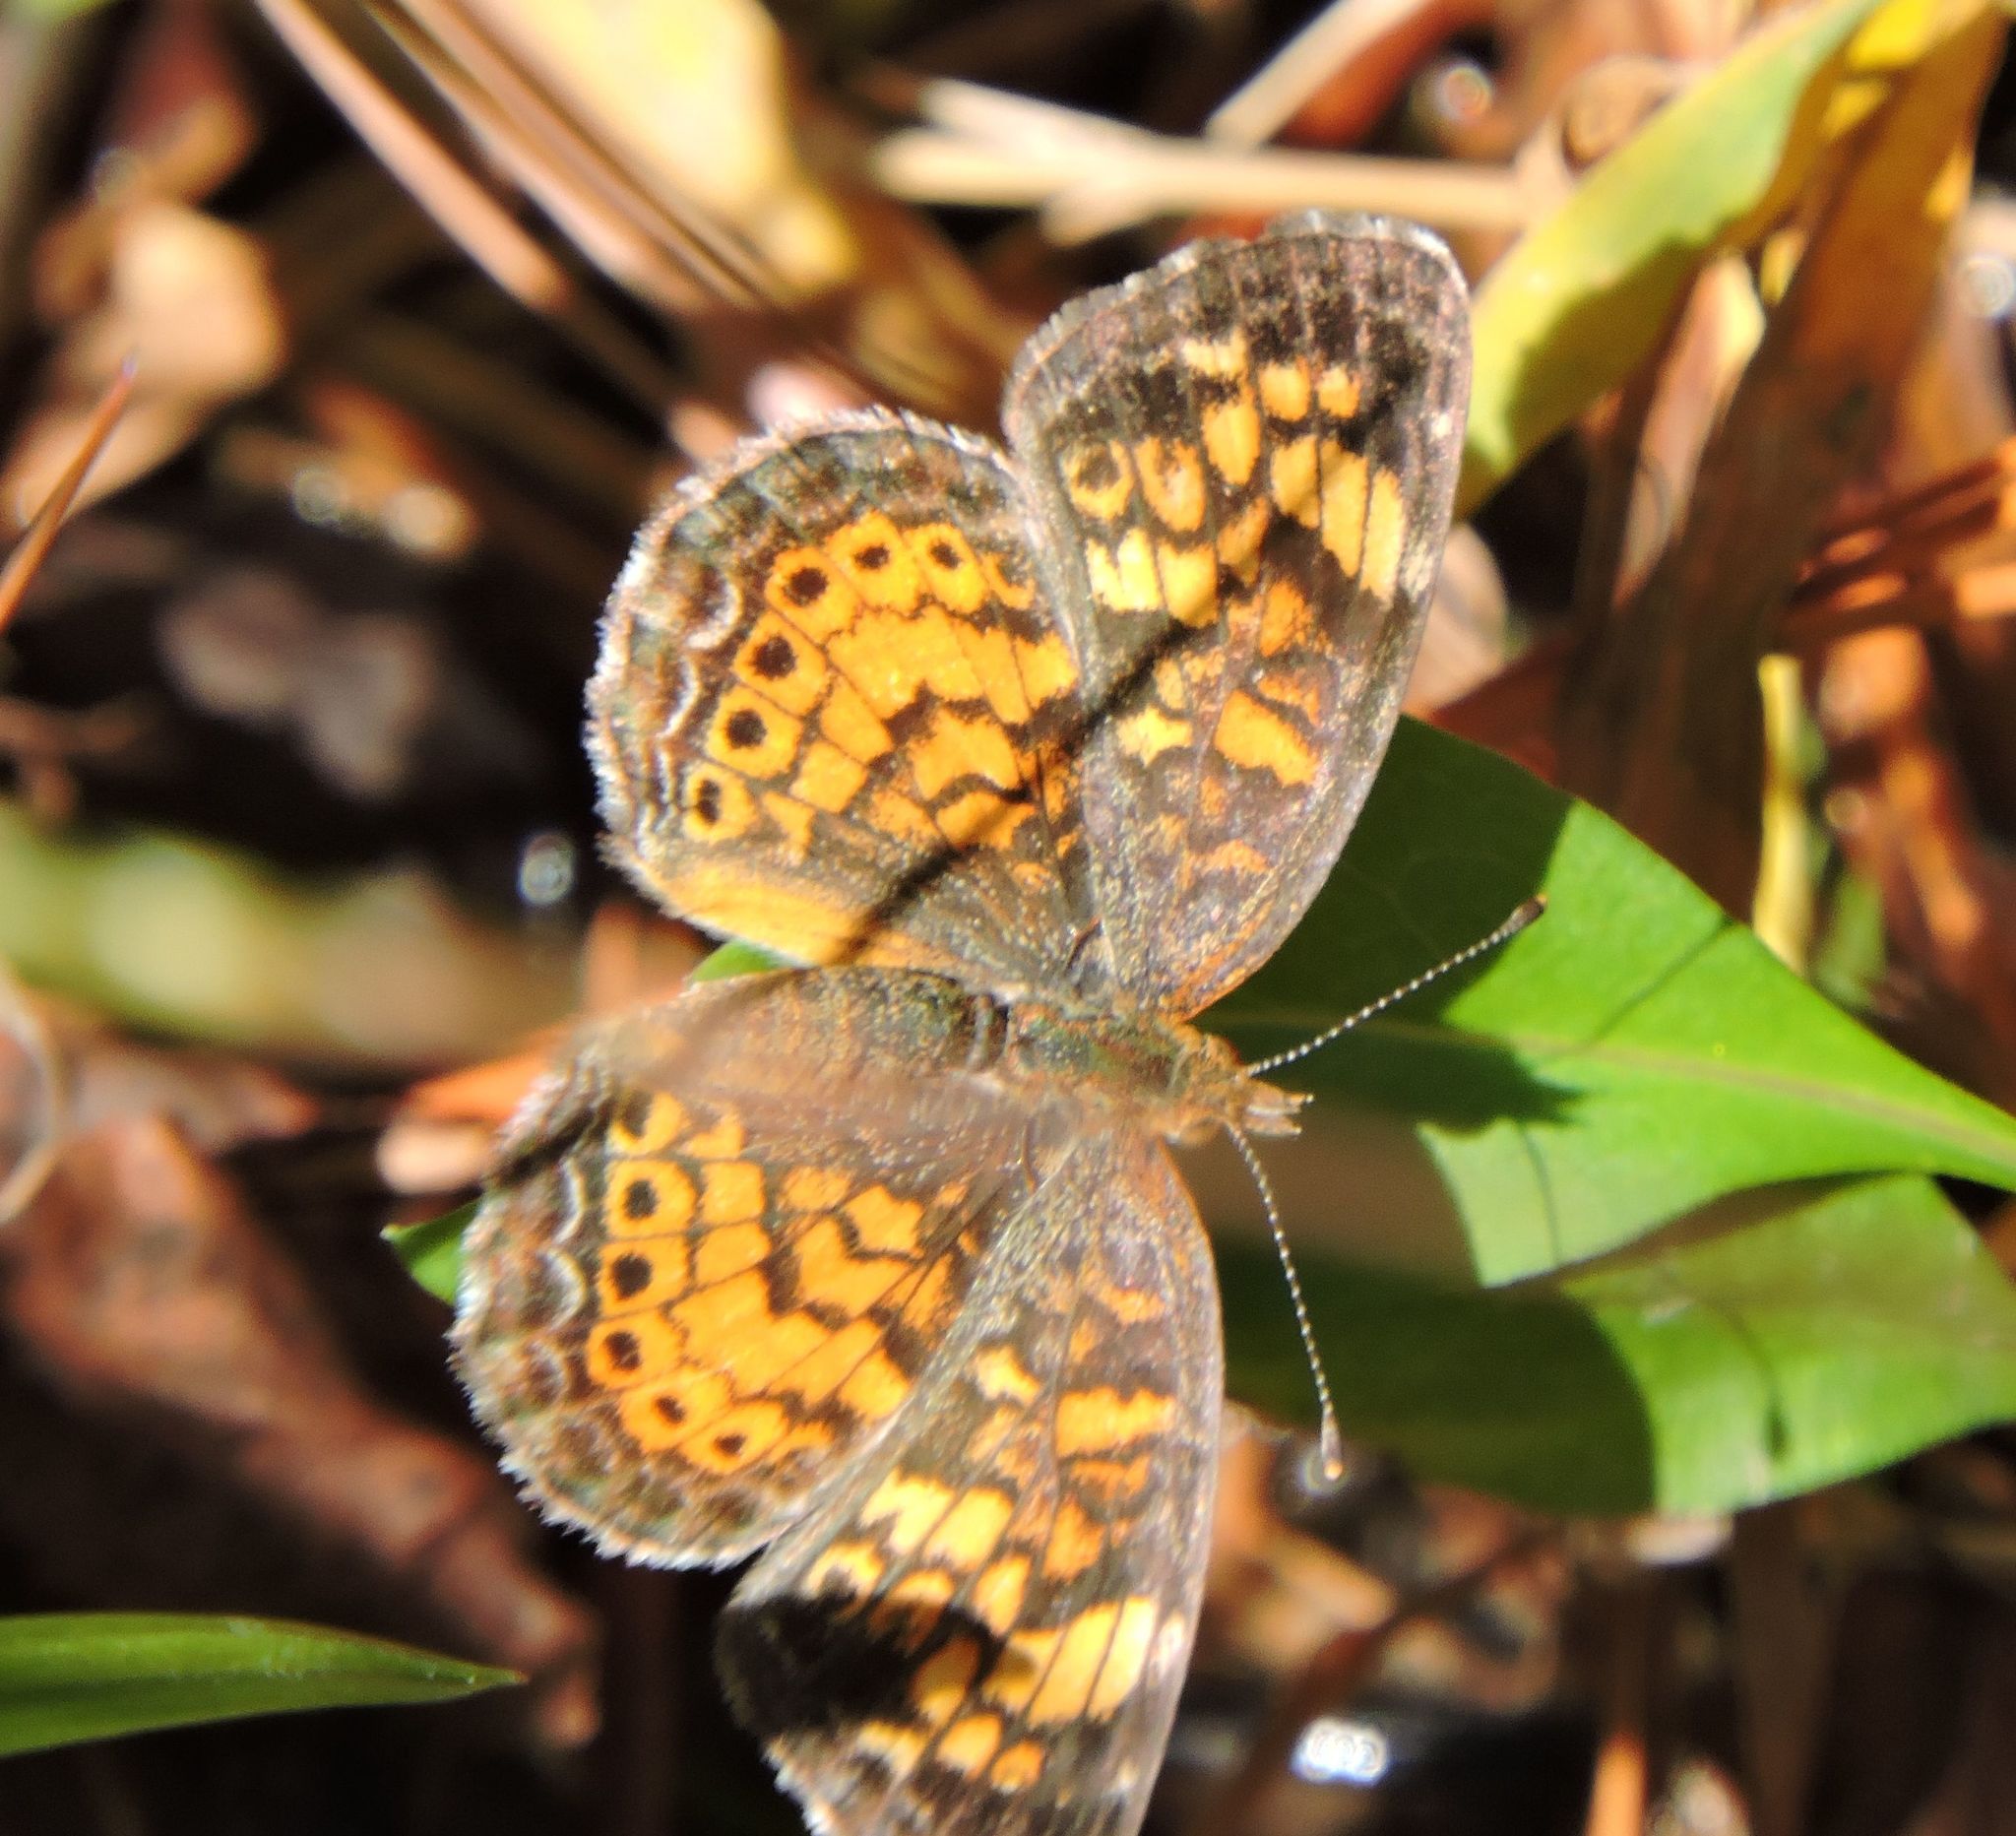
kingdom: Animalia
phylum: Arthropoda
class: Insecta
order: Lepidoptera
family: Nymphalidae
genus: Phyciodes
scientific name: Phyciodes tharos
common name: Pearl crescent
